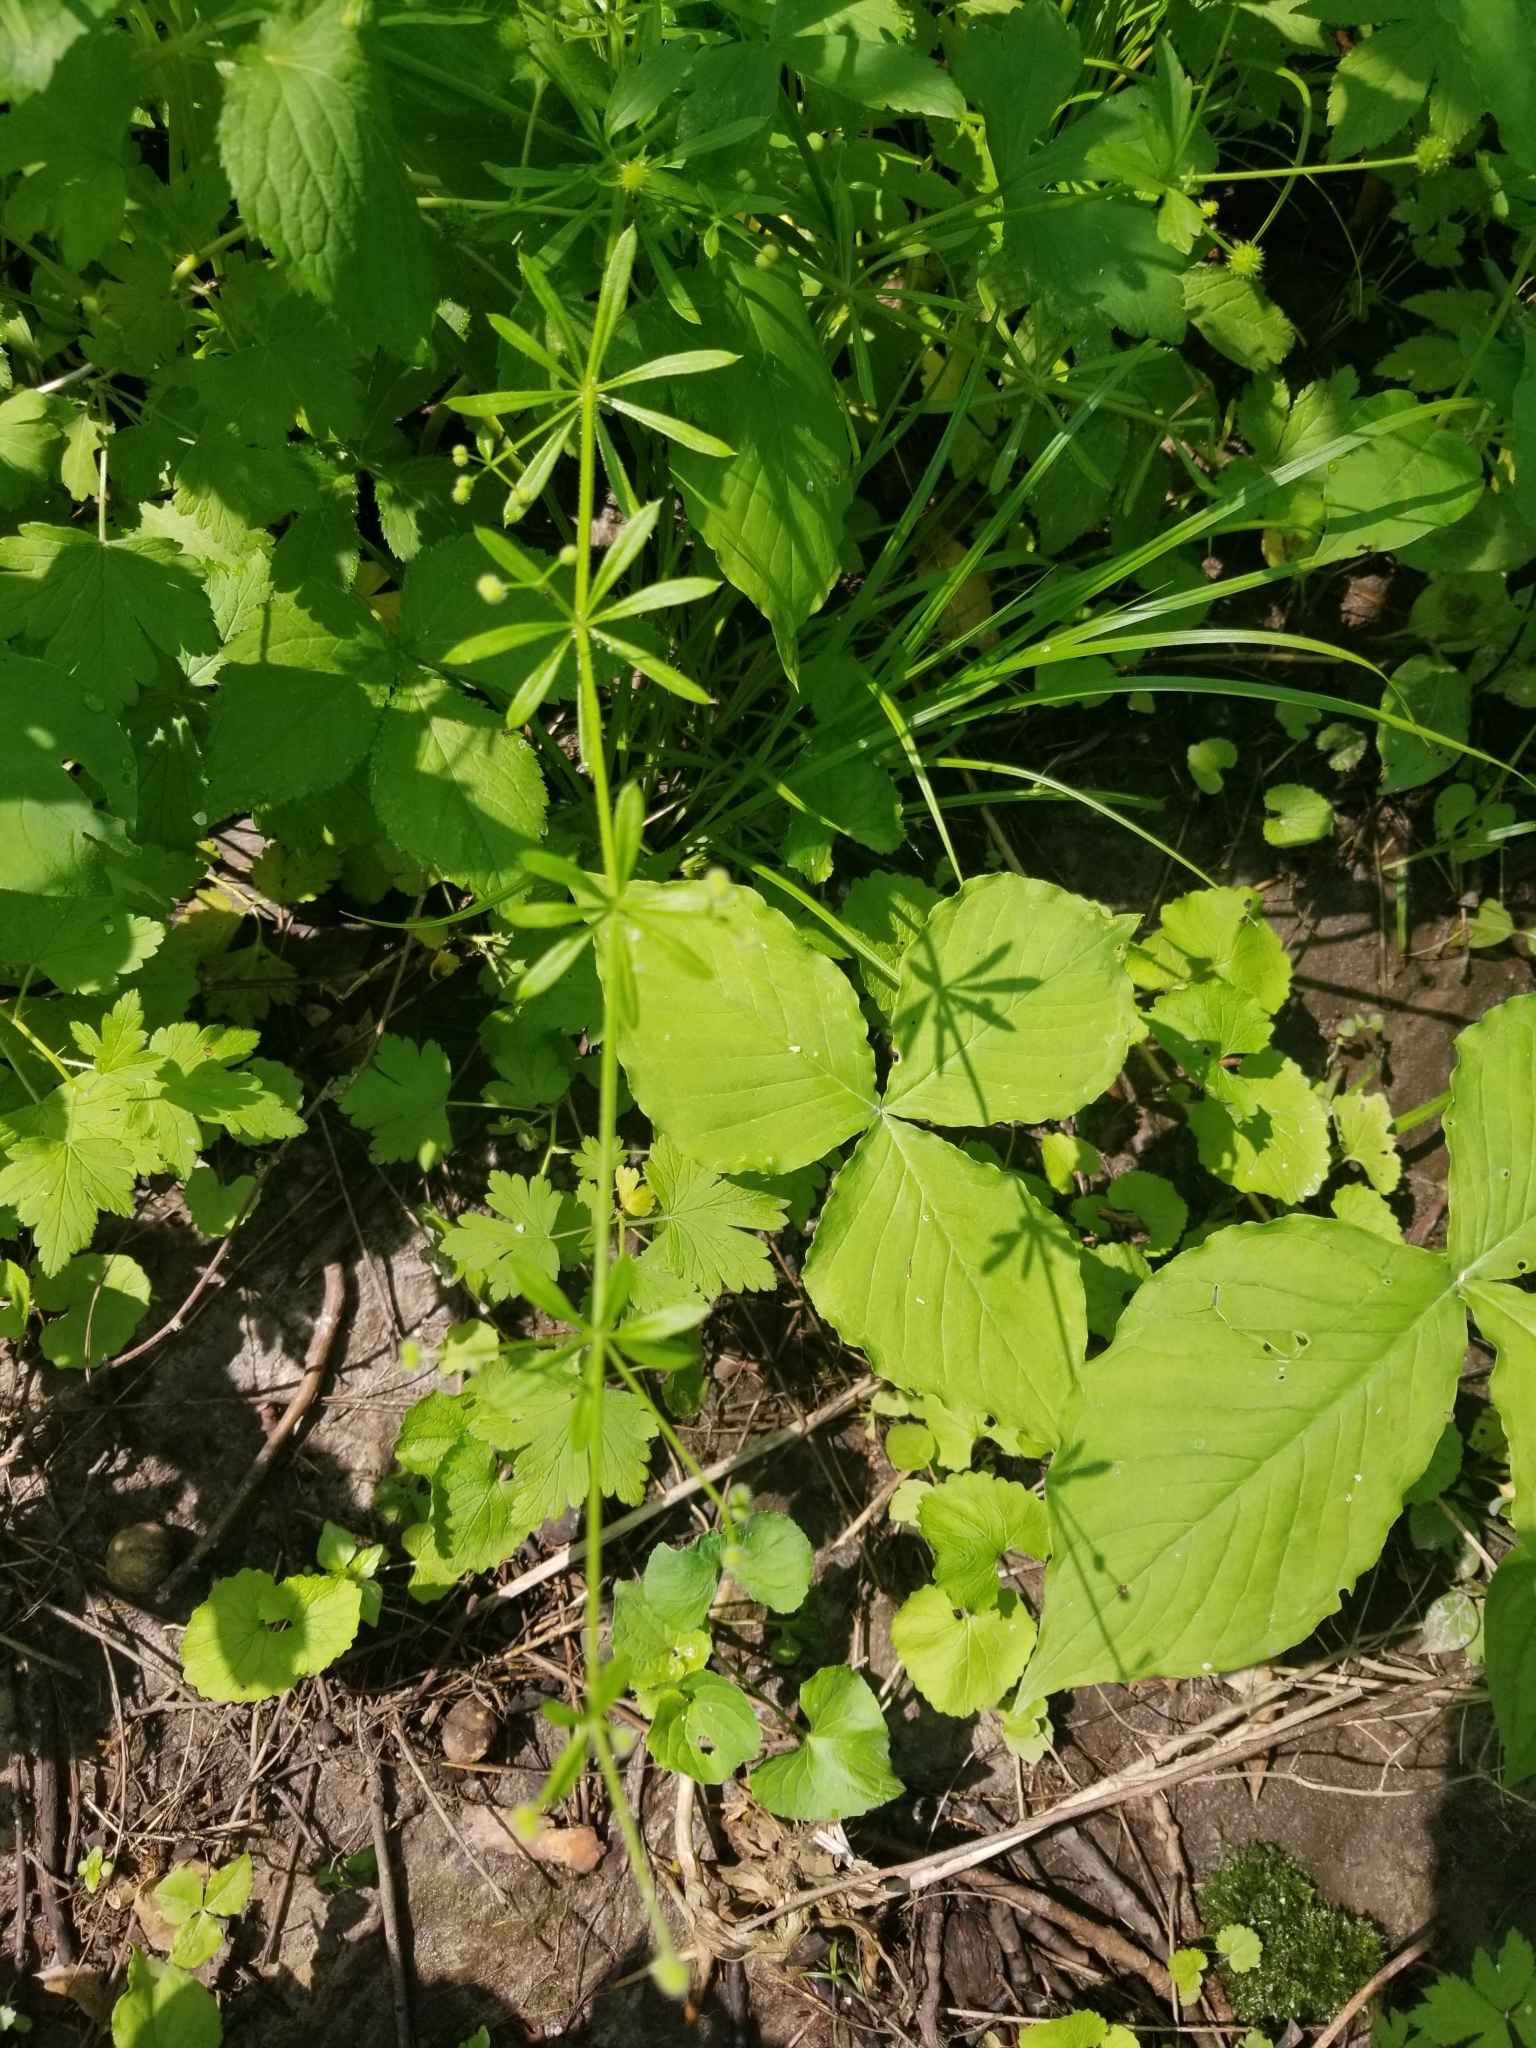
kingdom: Plantae
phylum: Tracheophyta
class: Magnoliopsida
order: Gentianales
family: Rubiaceae
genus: Galium
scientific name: Galium aparine
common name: Cleavers
